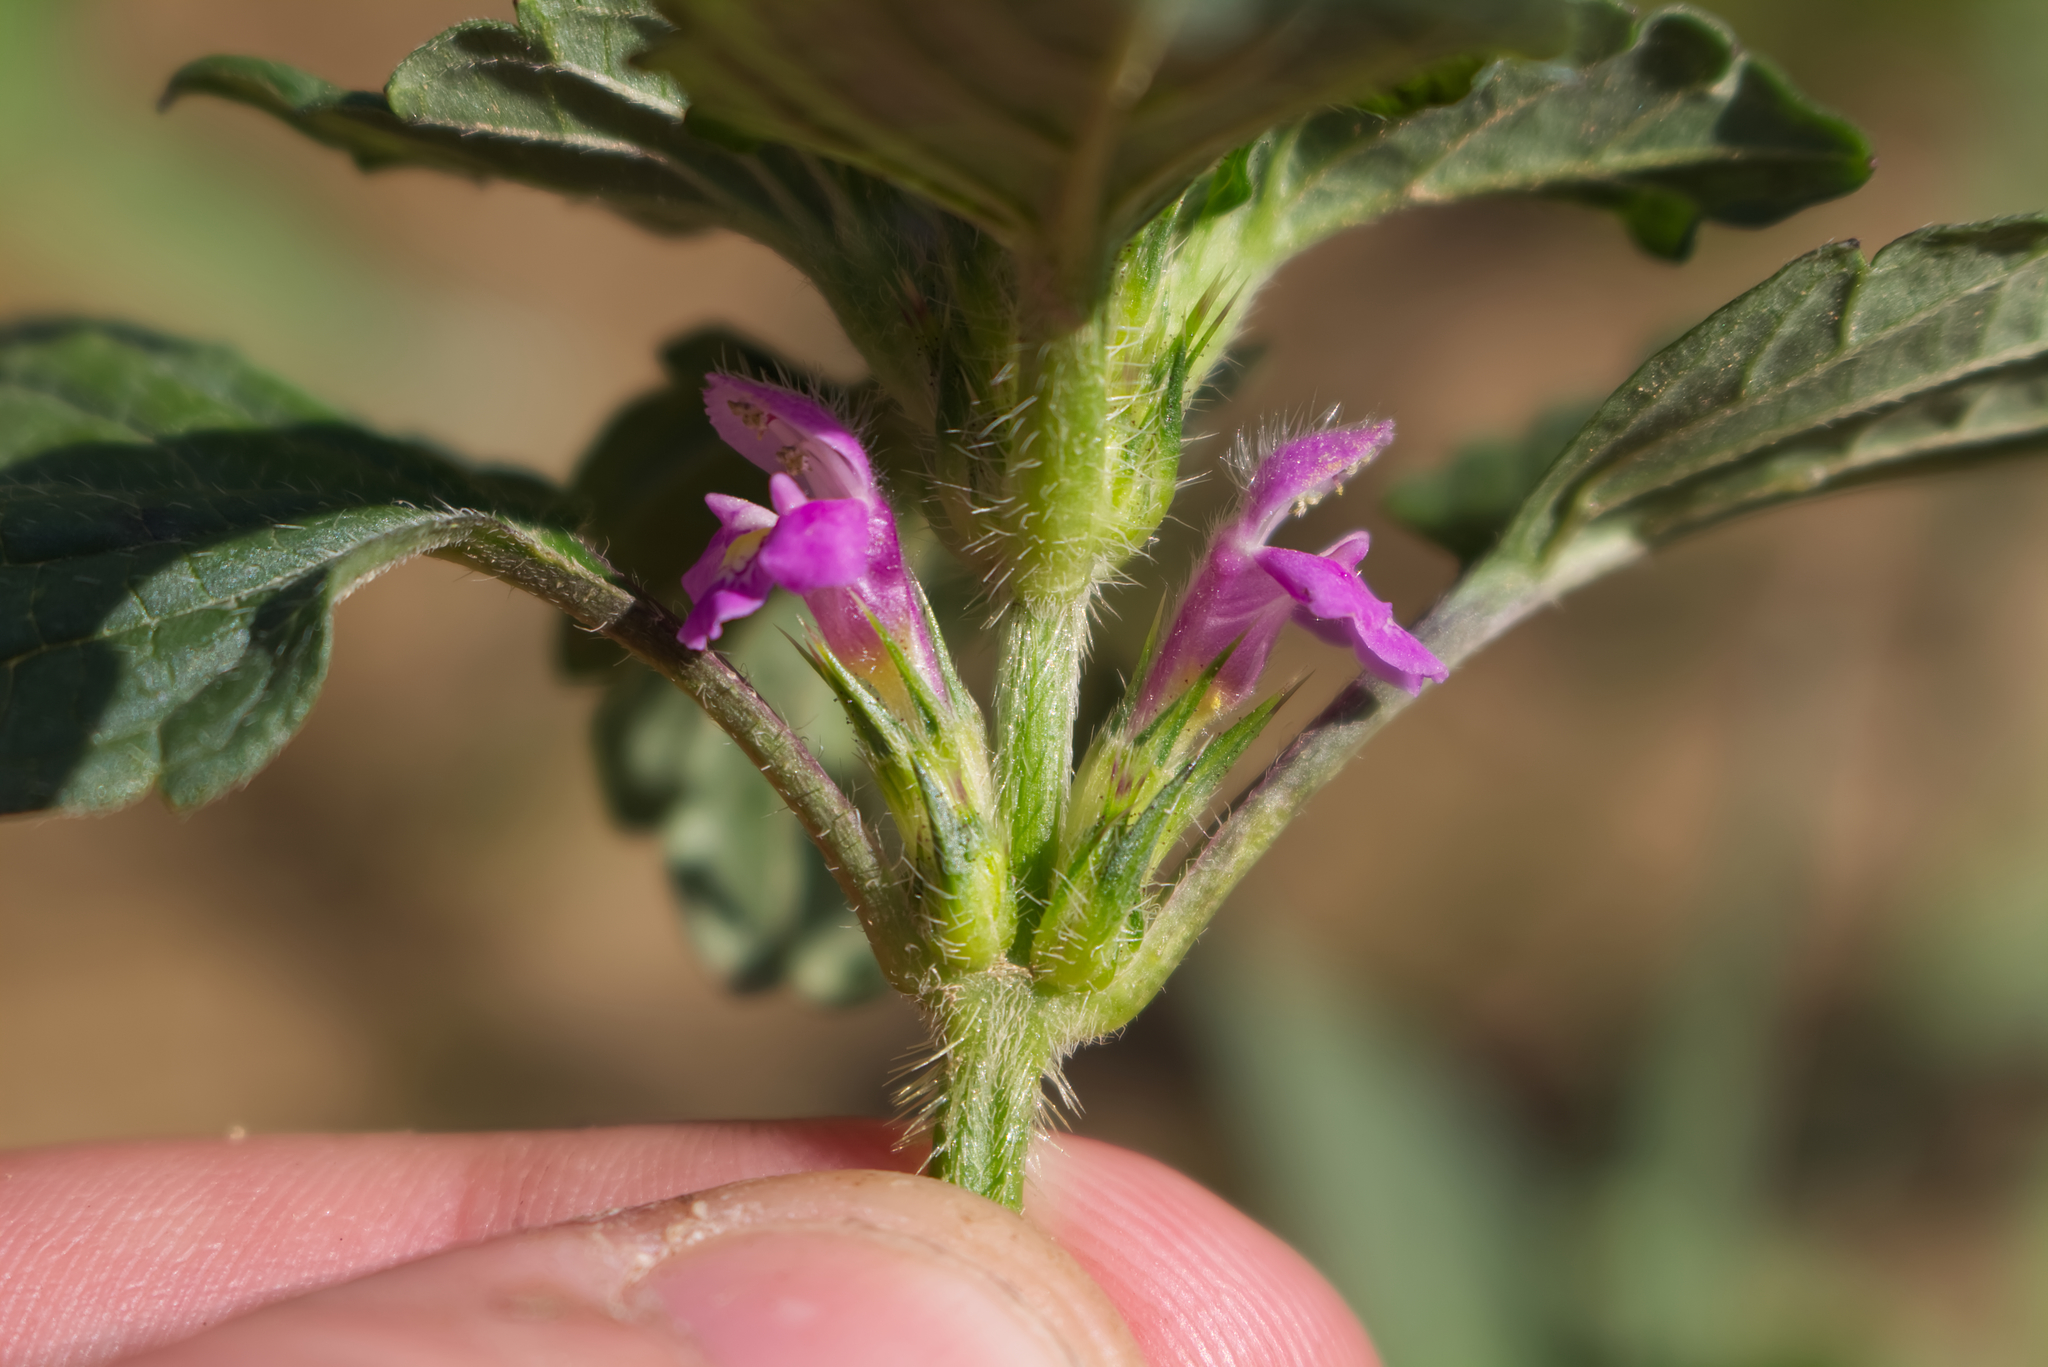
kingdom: Plantae
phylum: Tracheophyta
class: Magnoliopsida
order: Lamiales
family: Lamiaceae
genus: Galeopsis
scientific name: Galeopsis bifida
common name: Bifid hemp-nettle
